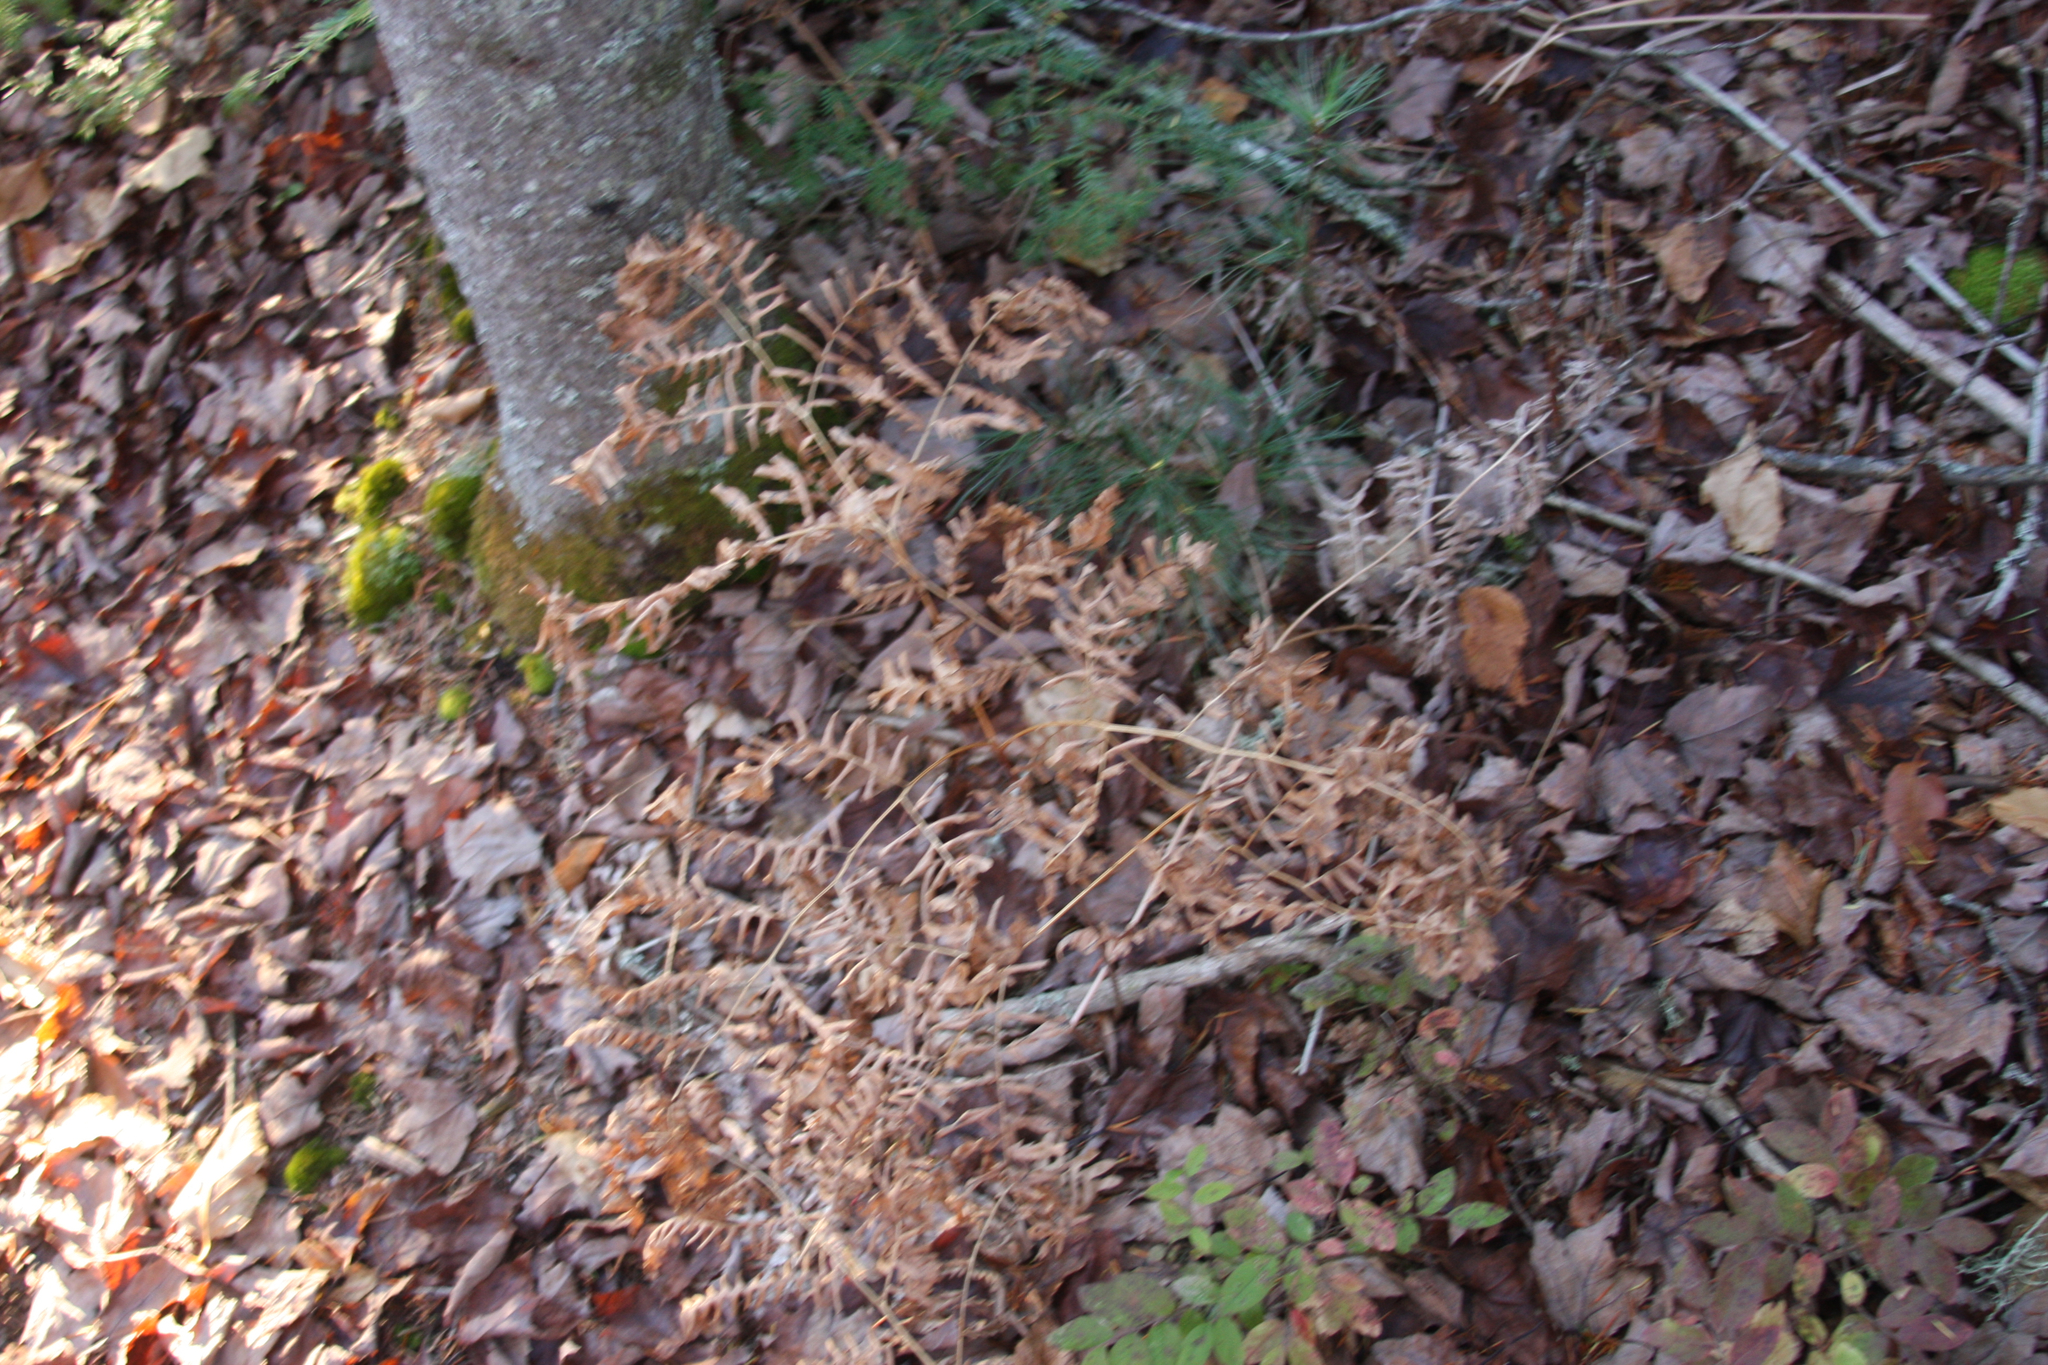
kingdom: Plantae
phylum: Tracheophyta
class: Polypodiopsida
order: Polypodiales
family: Dennstaedtiaceae
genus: Pteridium
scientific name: Pteridium aquilinum
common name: Bracken
